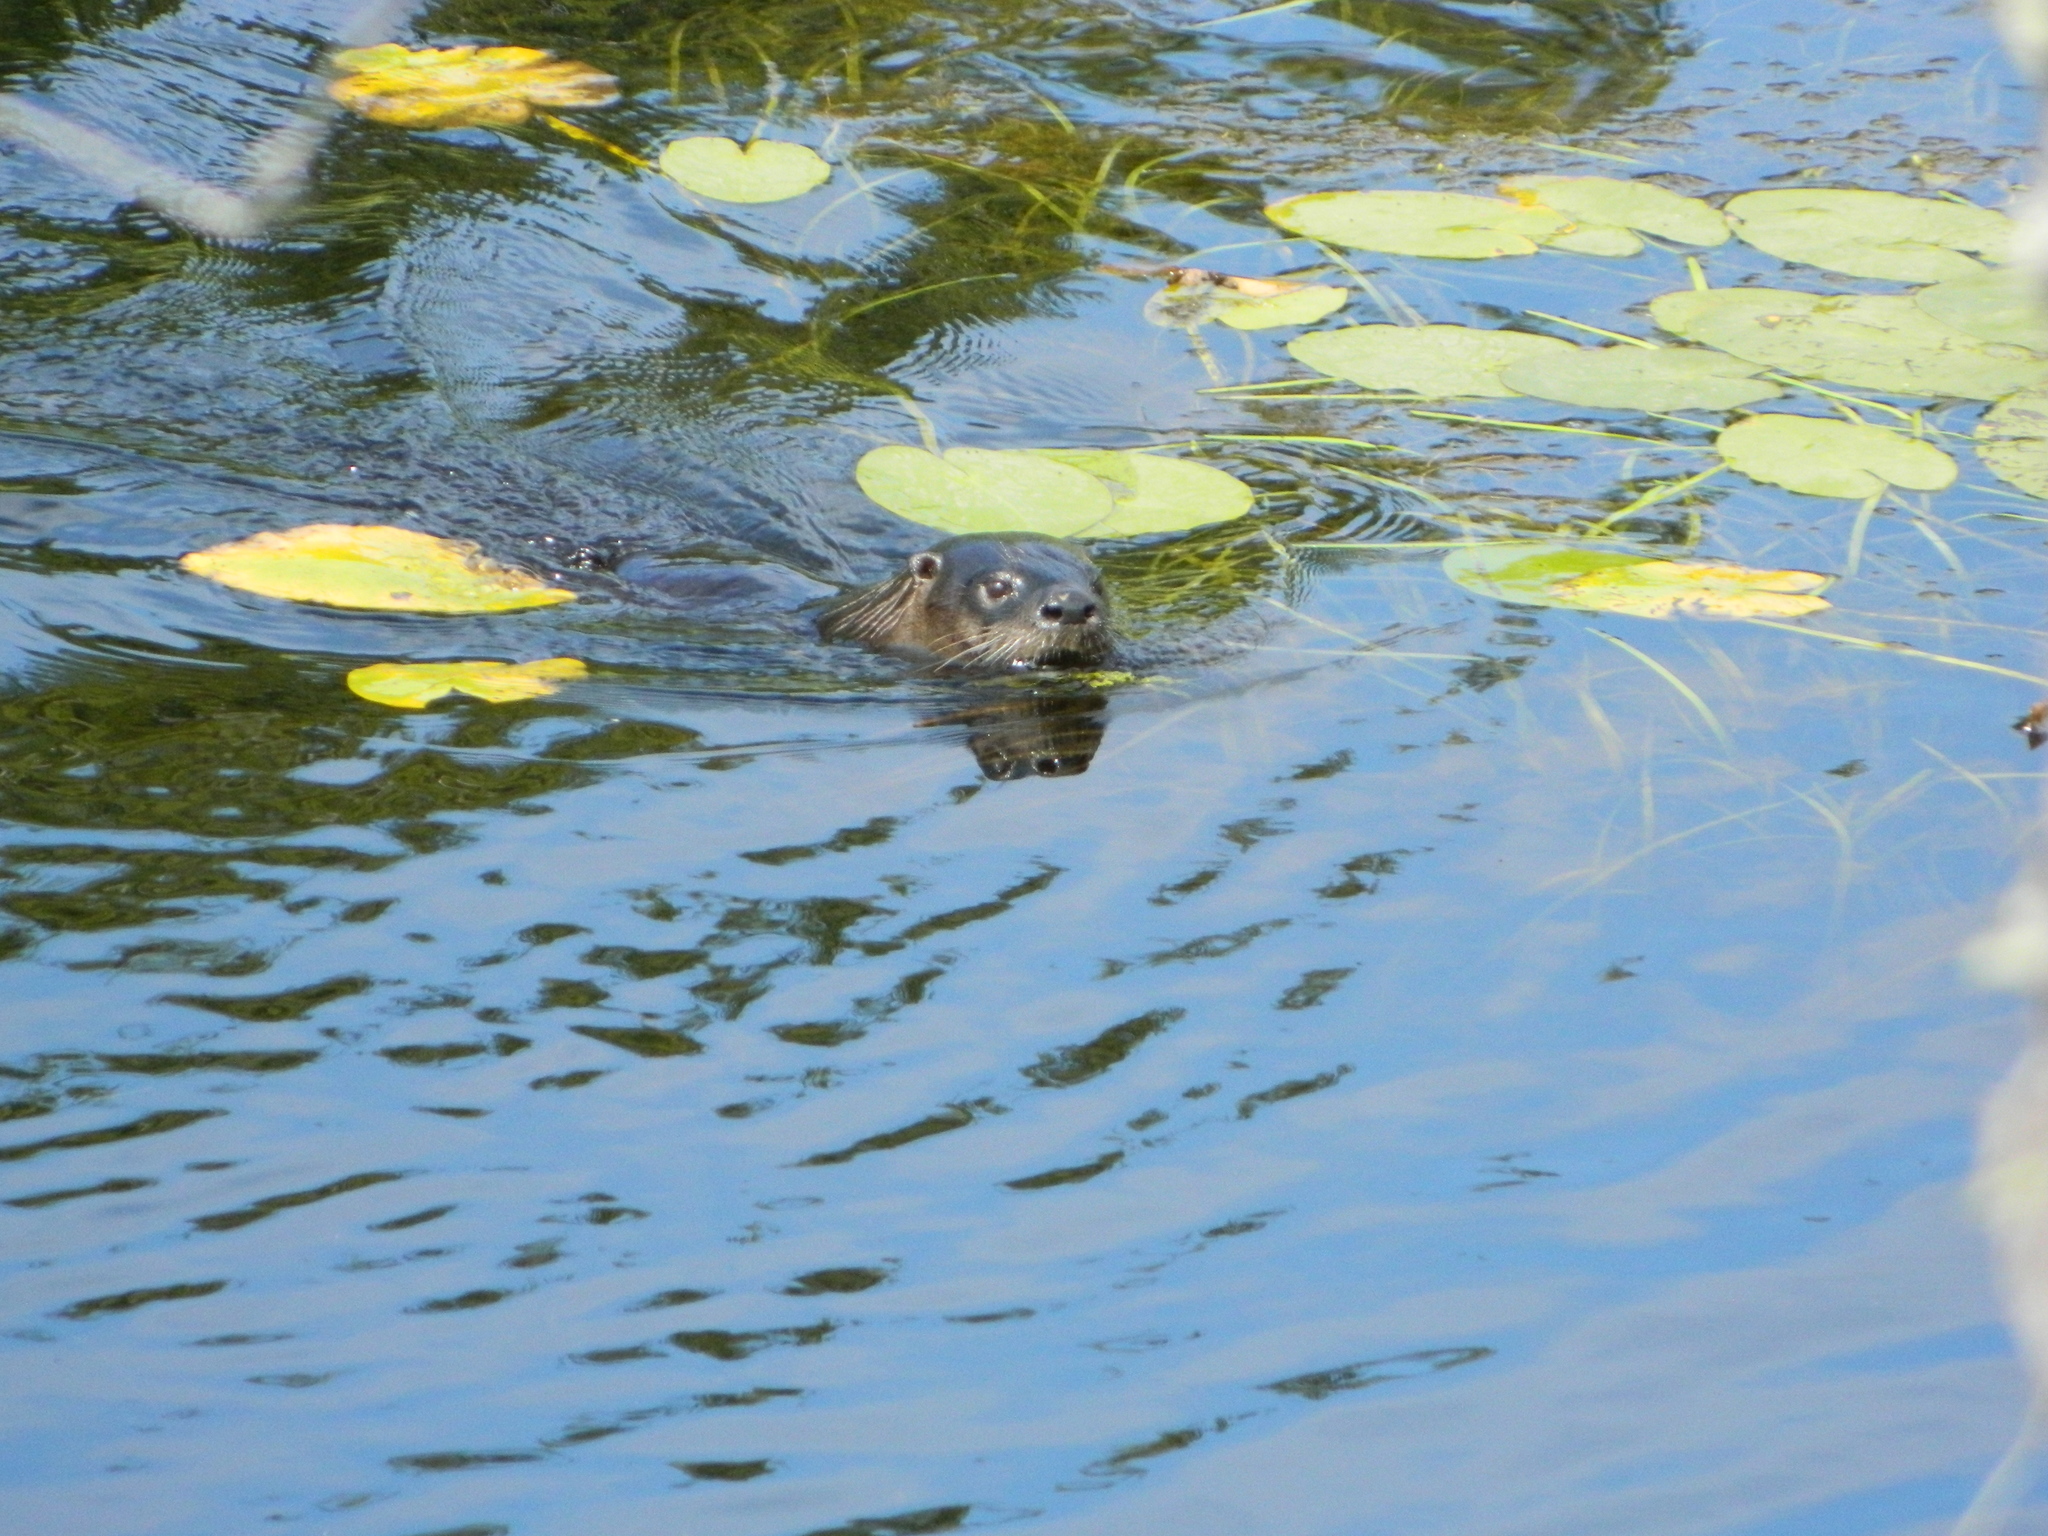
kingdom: Animalia
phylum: Chordata
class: Mammalia
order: Carnivora
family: Mustelidae
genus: Lontra
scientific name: Lontra canadensis
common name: North american river otter
